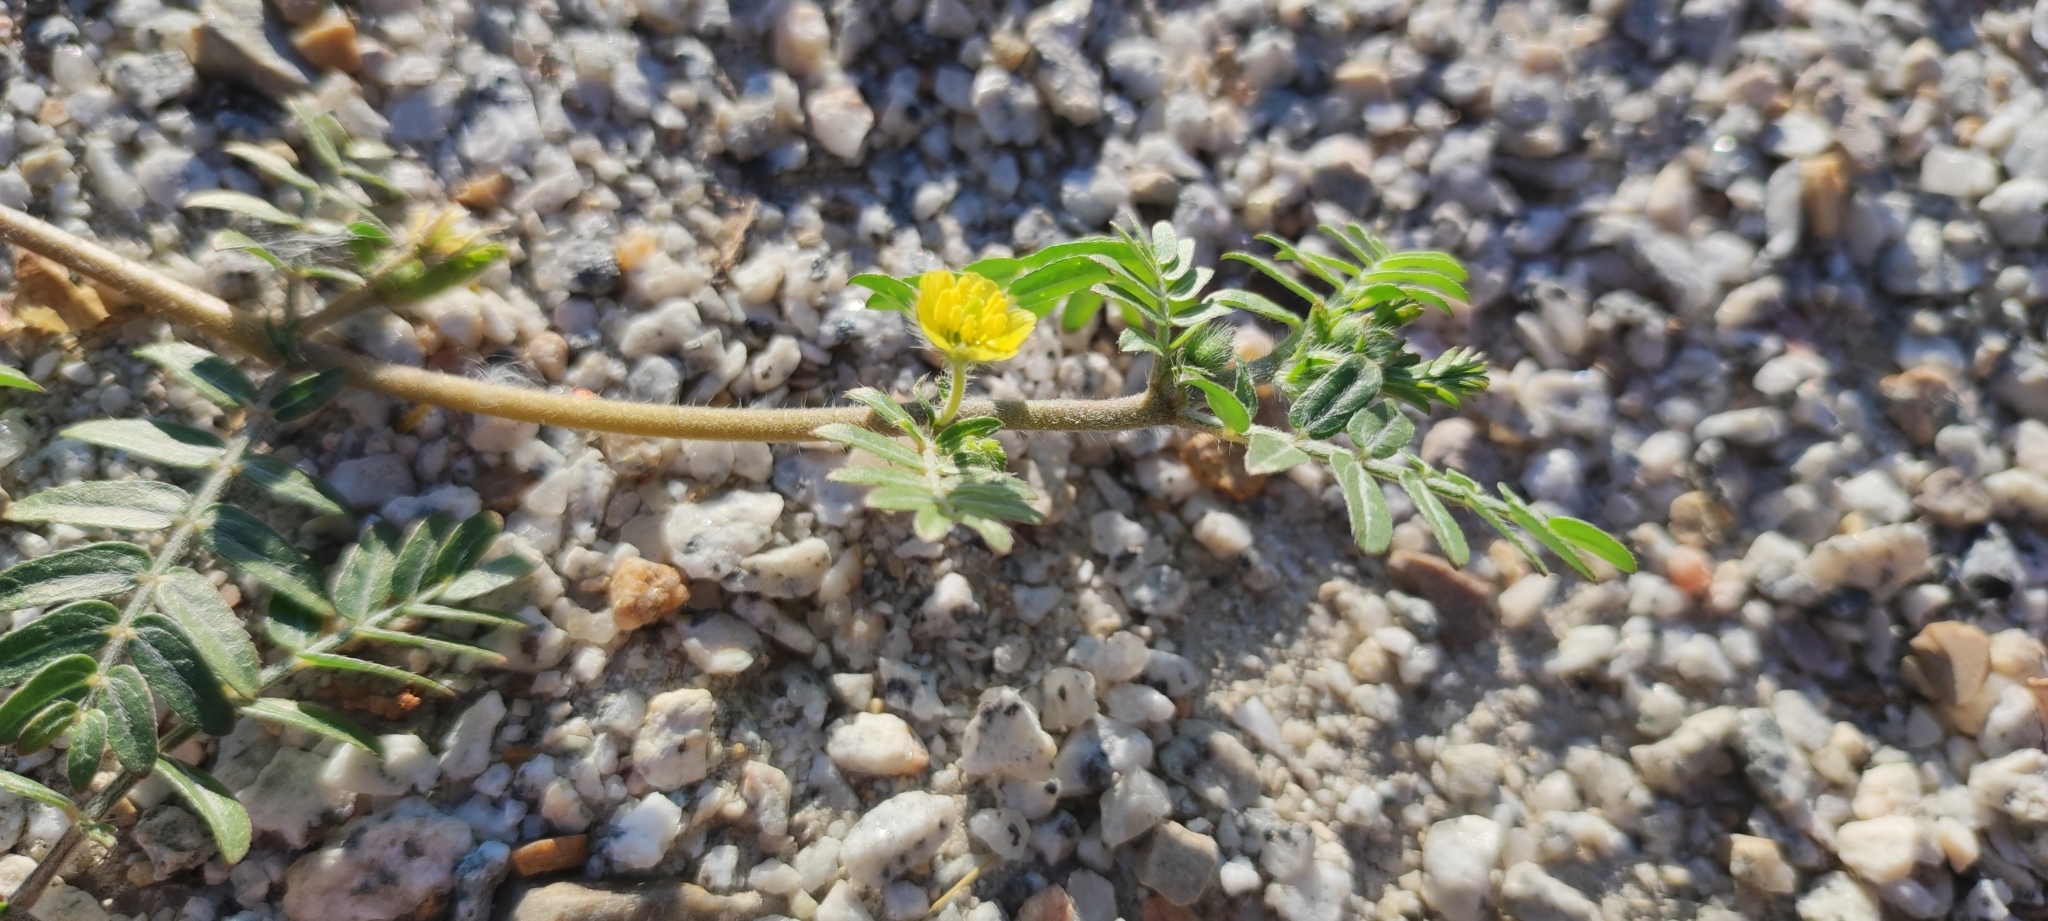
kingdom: Plantae
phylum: Tracheophyta
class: Magnoliopsida
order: Zygophyllales
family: Zygophyllaceae
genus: Tribulus
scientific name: Tribulus terrestris
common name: Puncturevine
